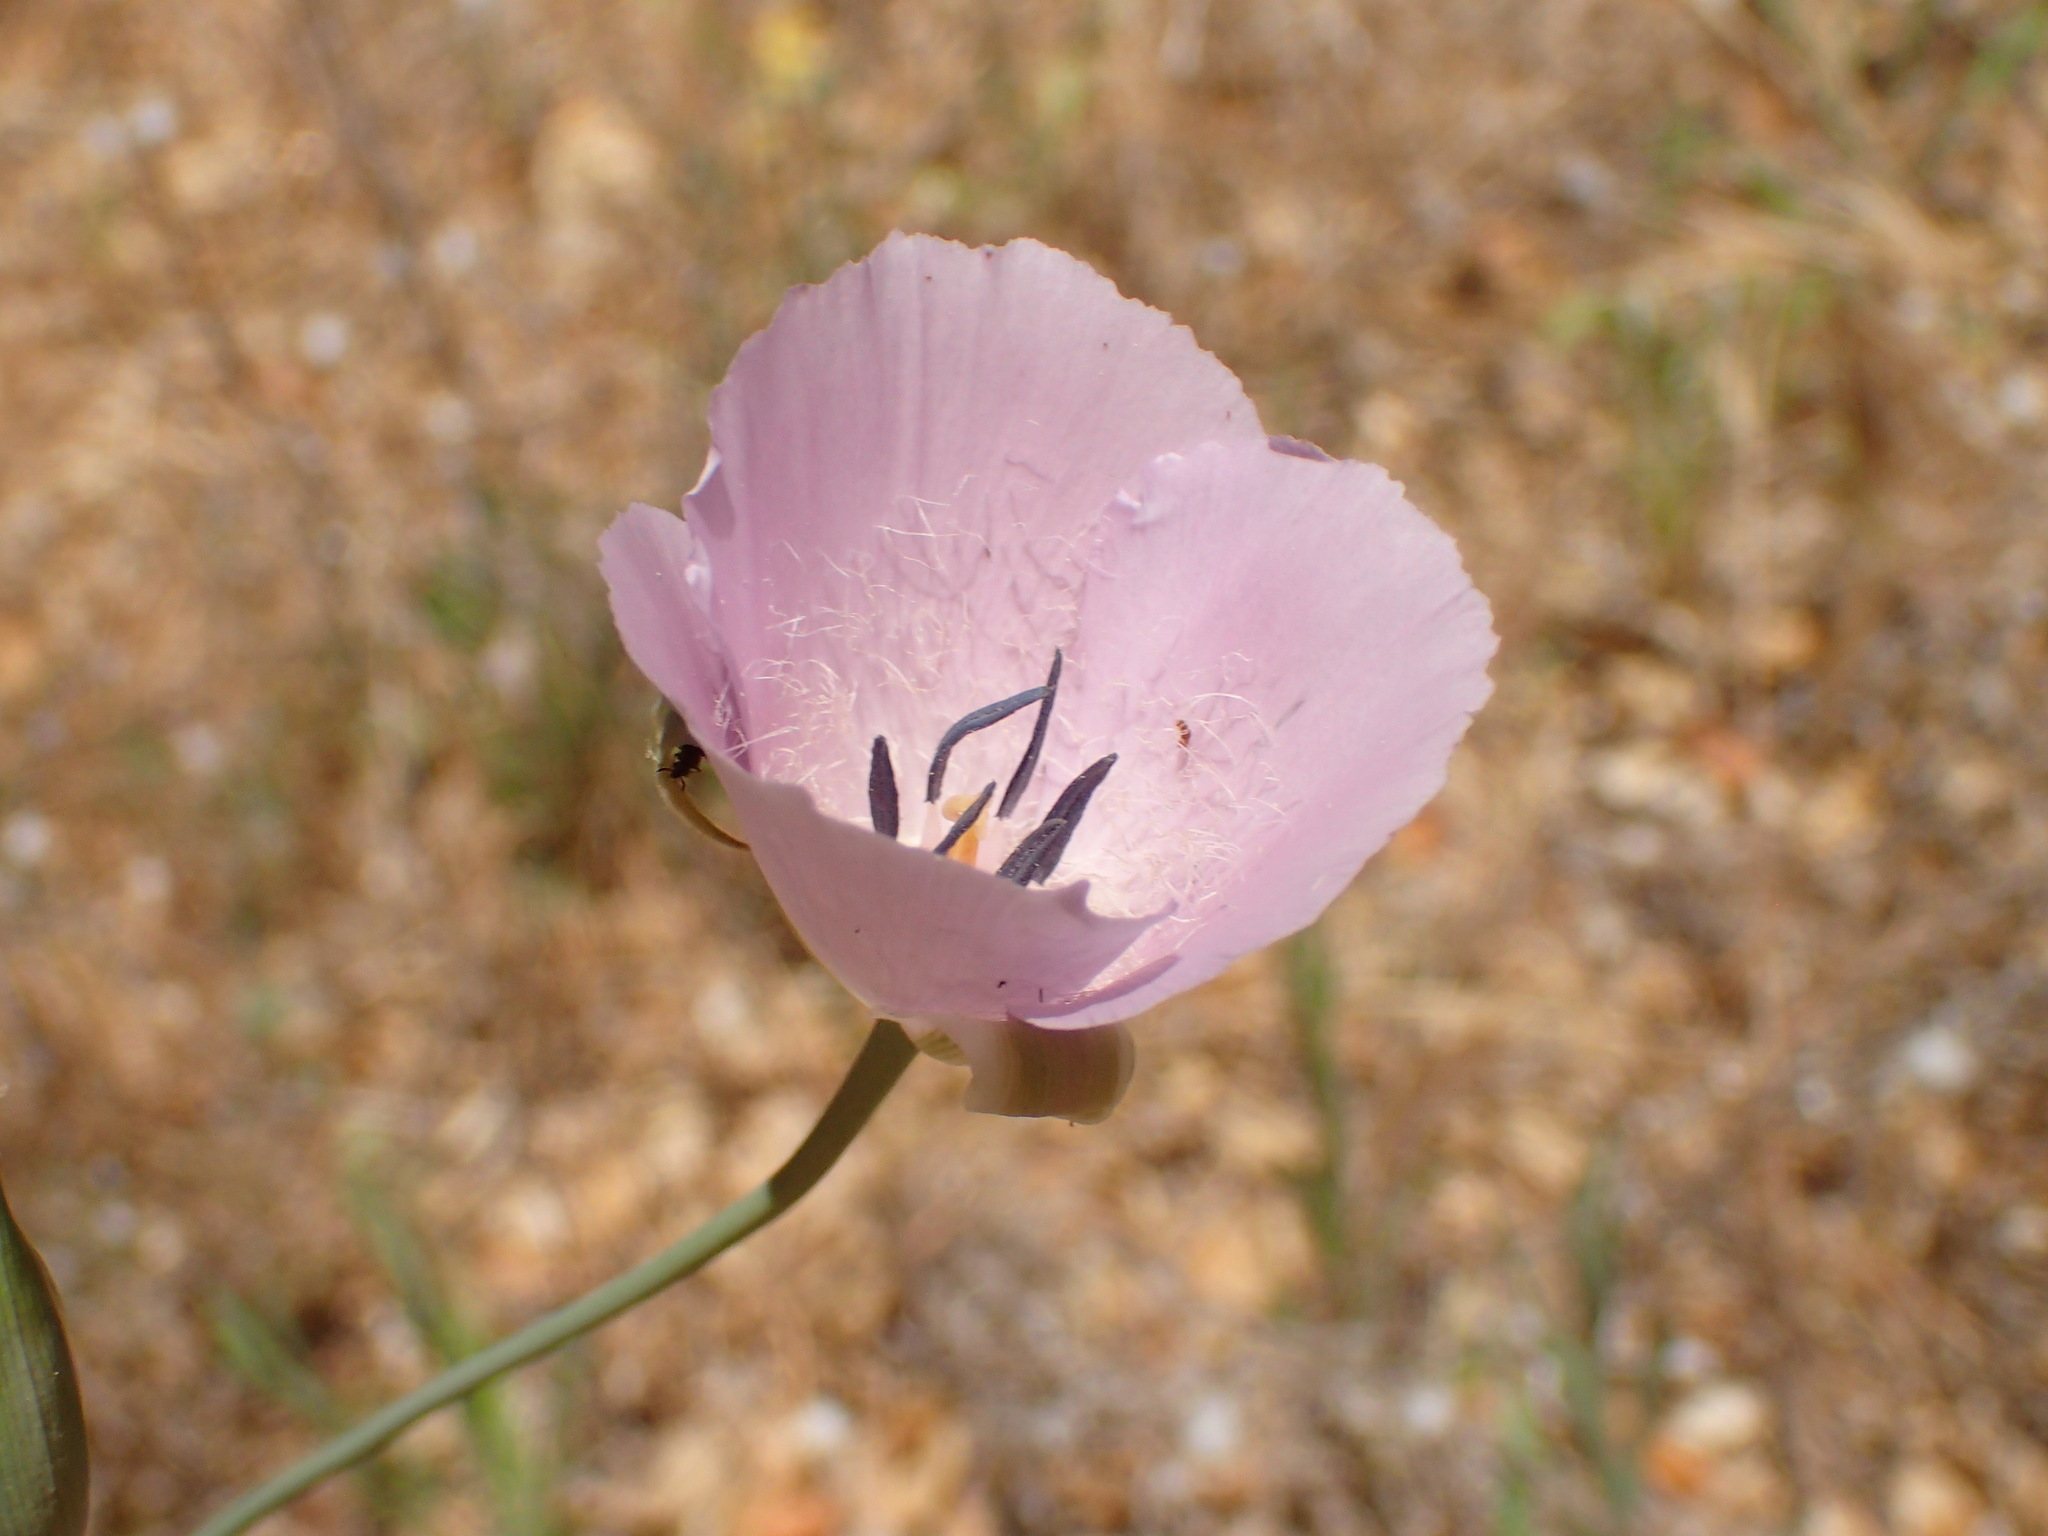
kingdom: Plantae
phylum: Tracheophyta
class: Liliopsida
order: Liliales
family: Liliaceae
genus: Calochortus
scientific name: Calochortus splendens
